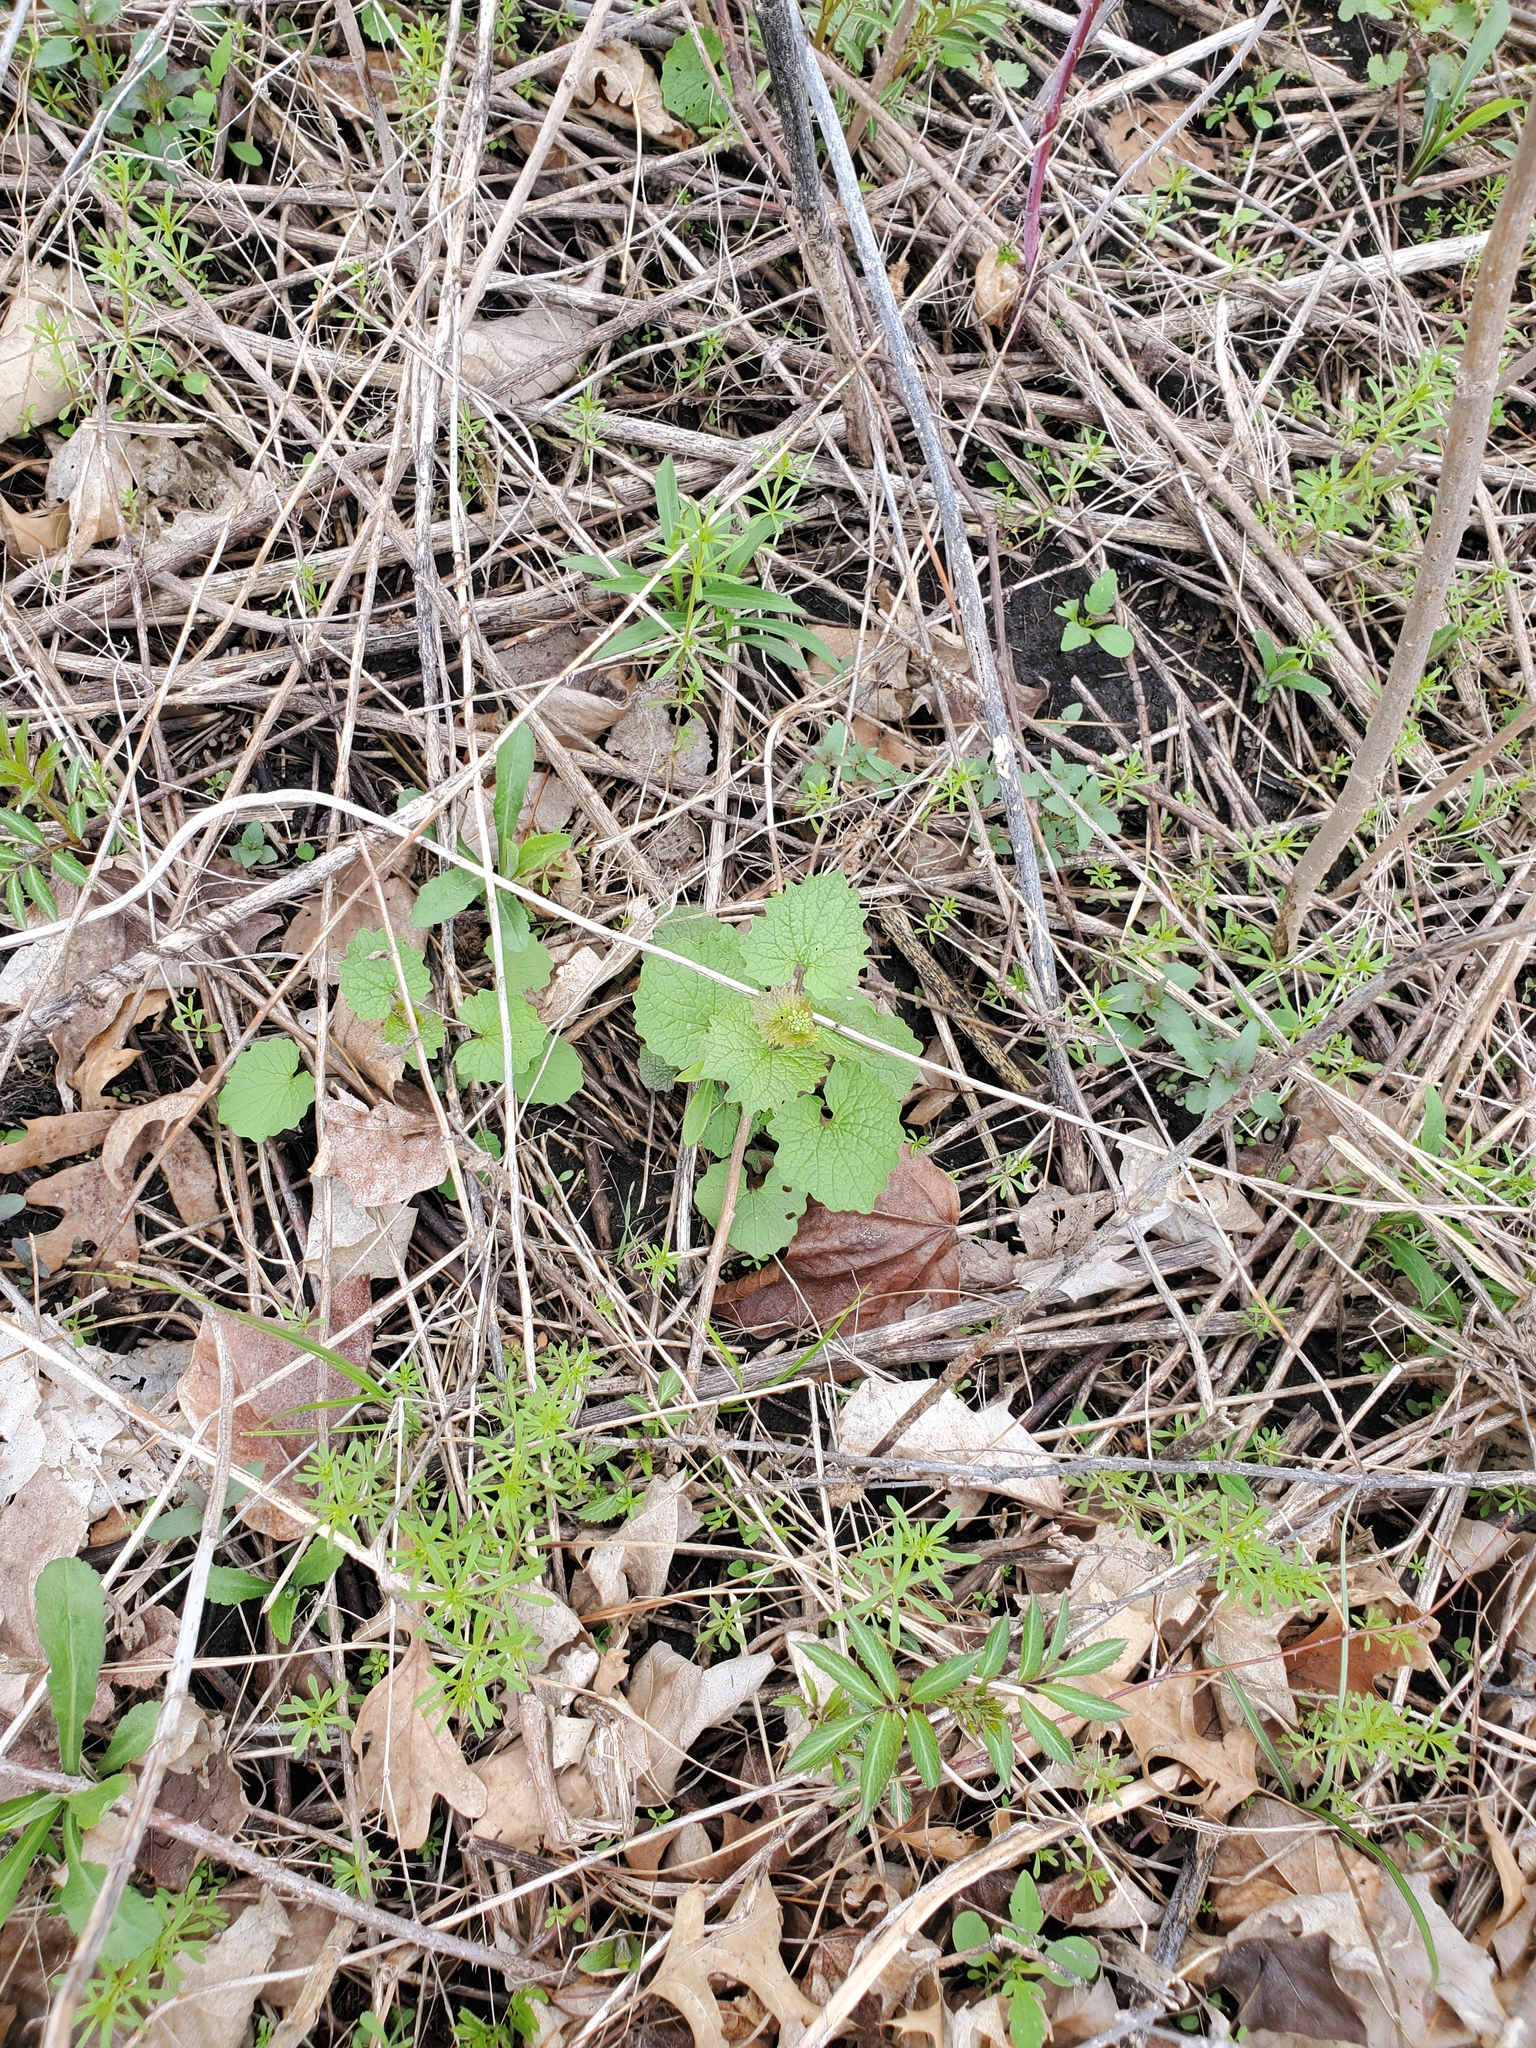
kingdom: Plantae
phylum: Tracheophyta
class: Magnoliopsida
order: Brassicales
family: Brassicaceae
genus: Alliaria
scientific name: Alliaria petiolata
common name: Garlic mustard
